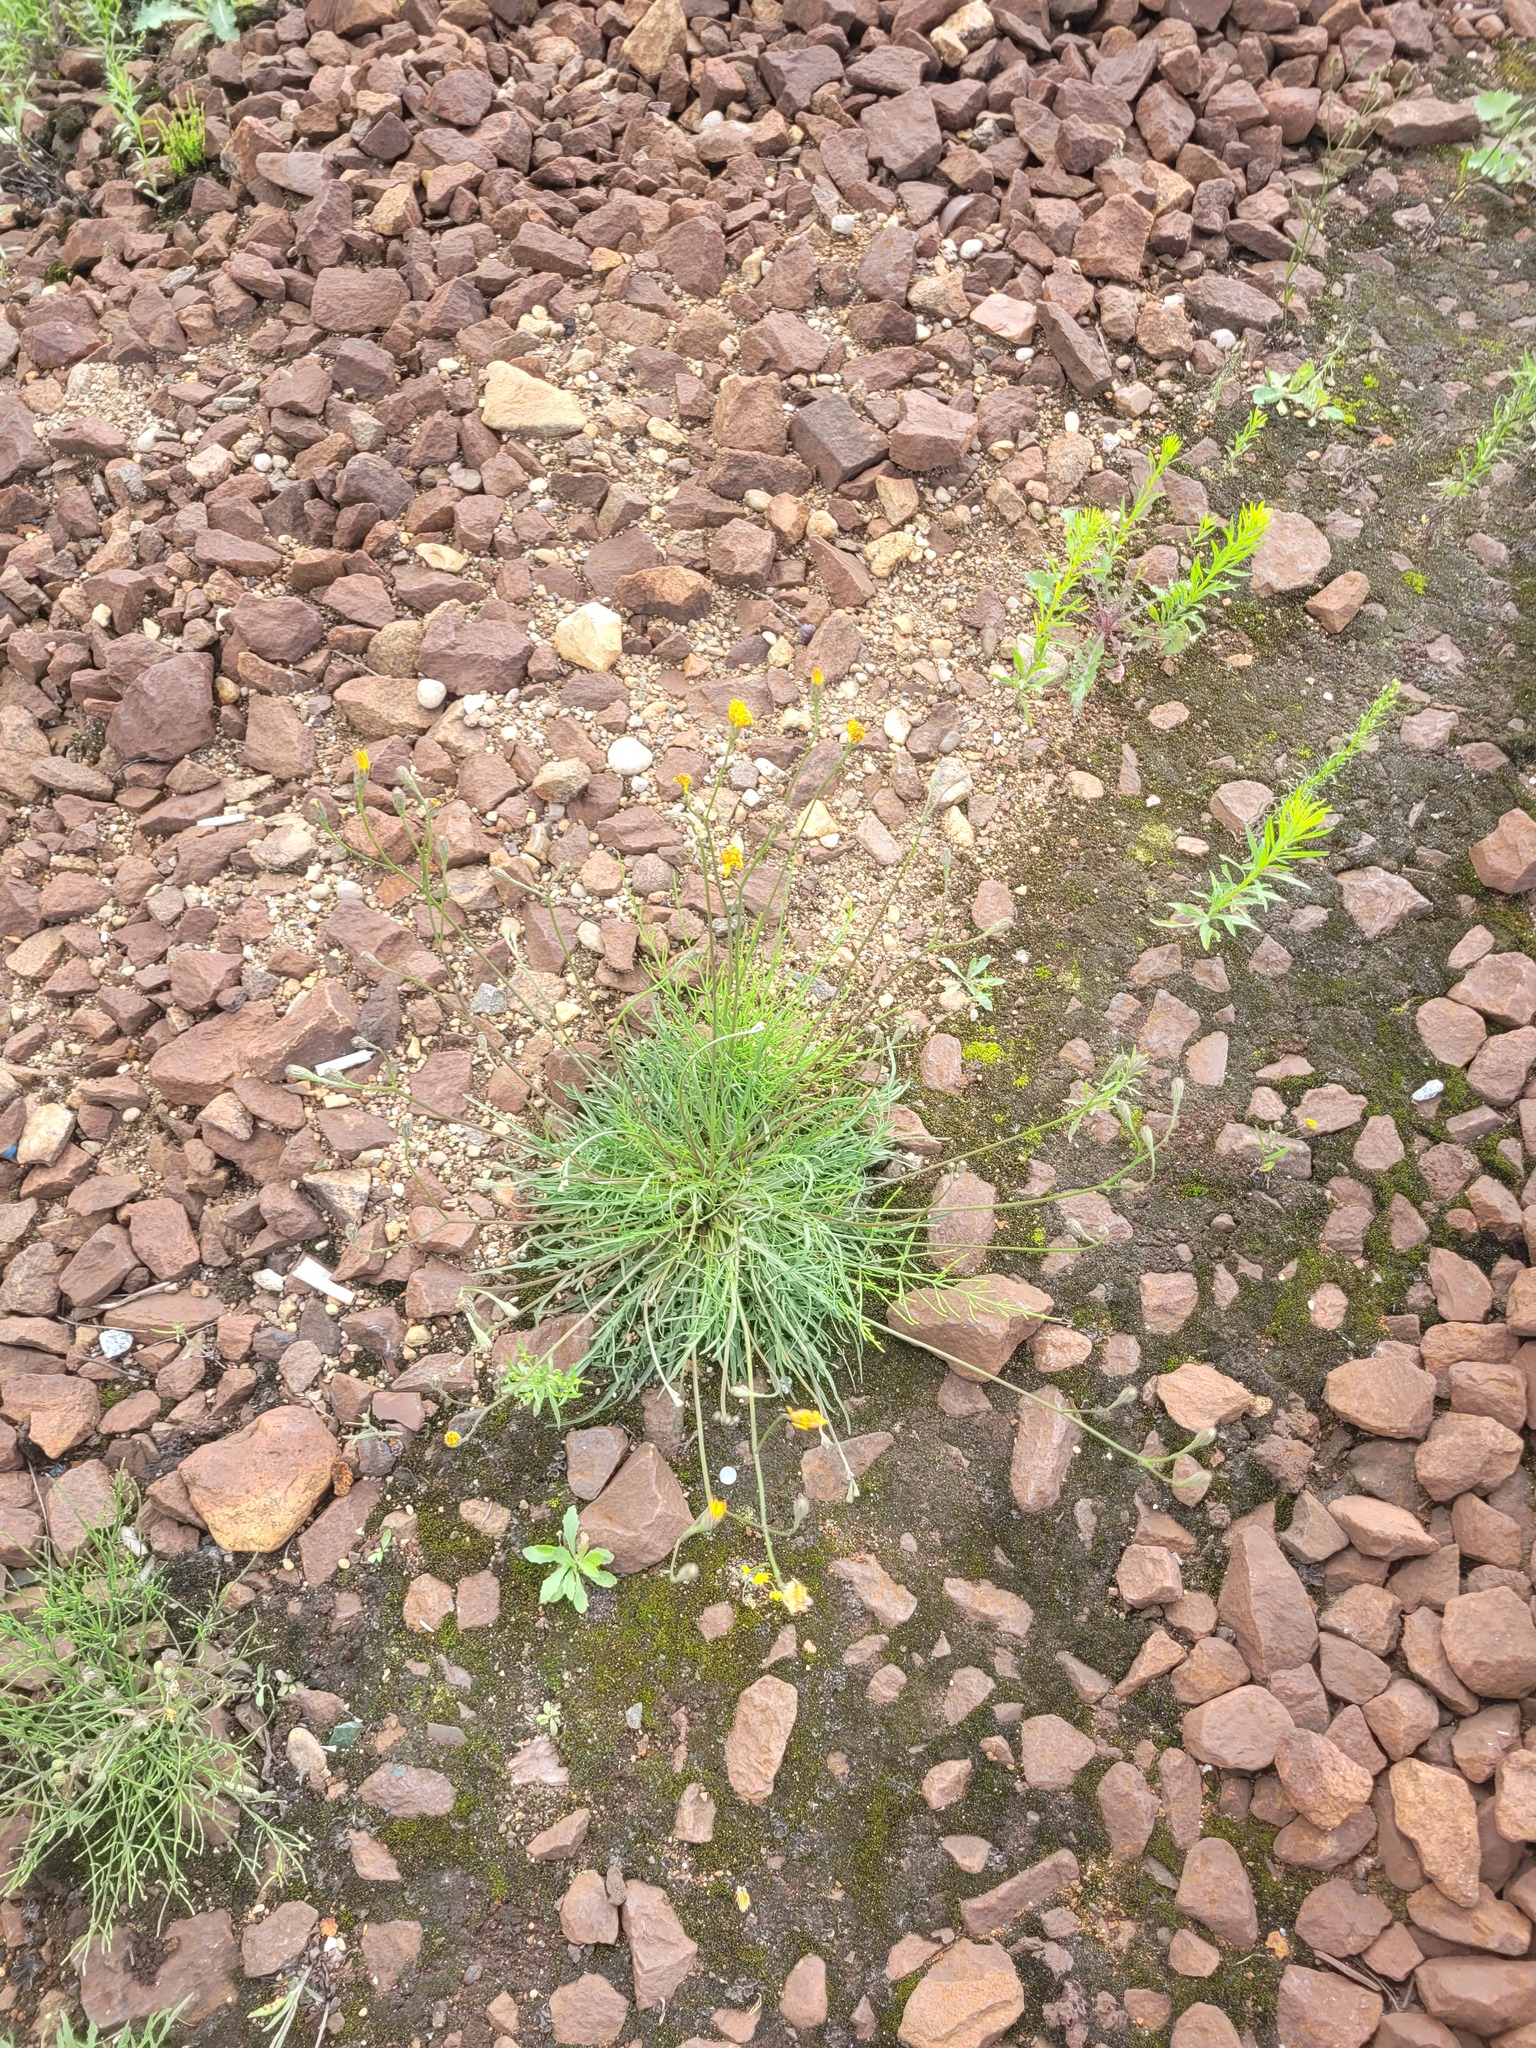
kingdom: Plantae
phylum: Tracheophyta
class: Magnoliopsida
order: Asterales
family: Asteraceae
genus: Scorzoneroides
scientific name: Scorzoneroides autumnalis
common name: Autumn hawkbit
